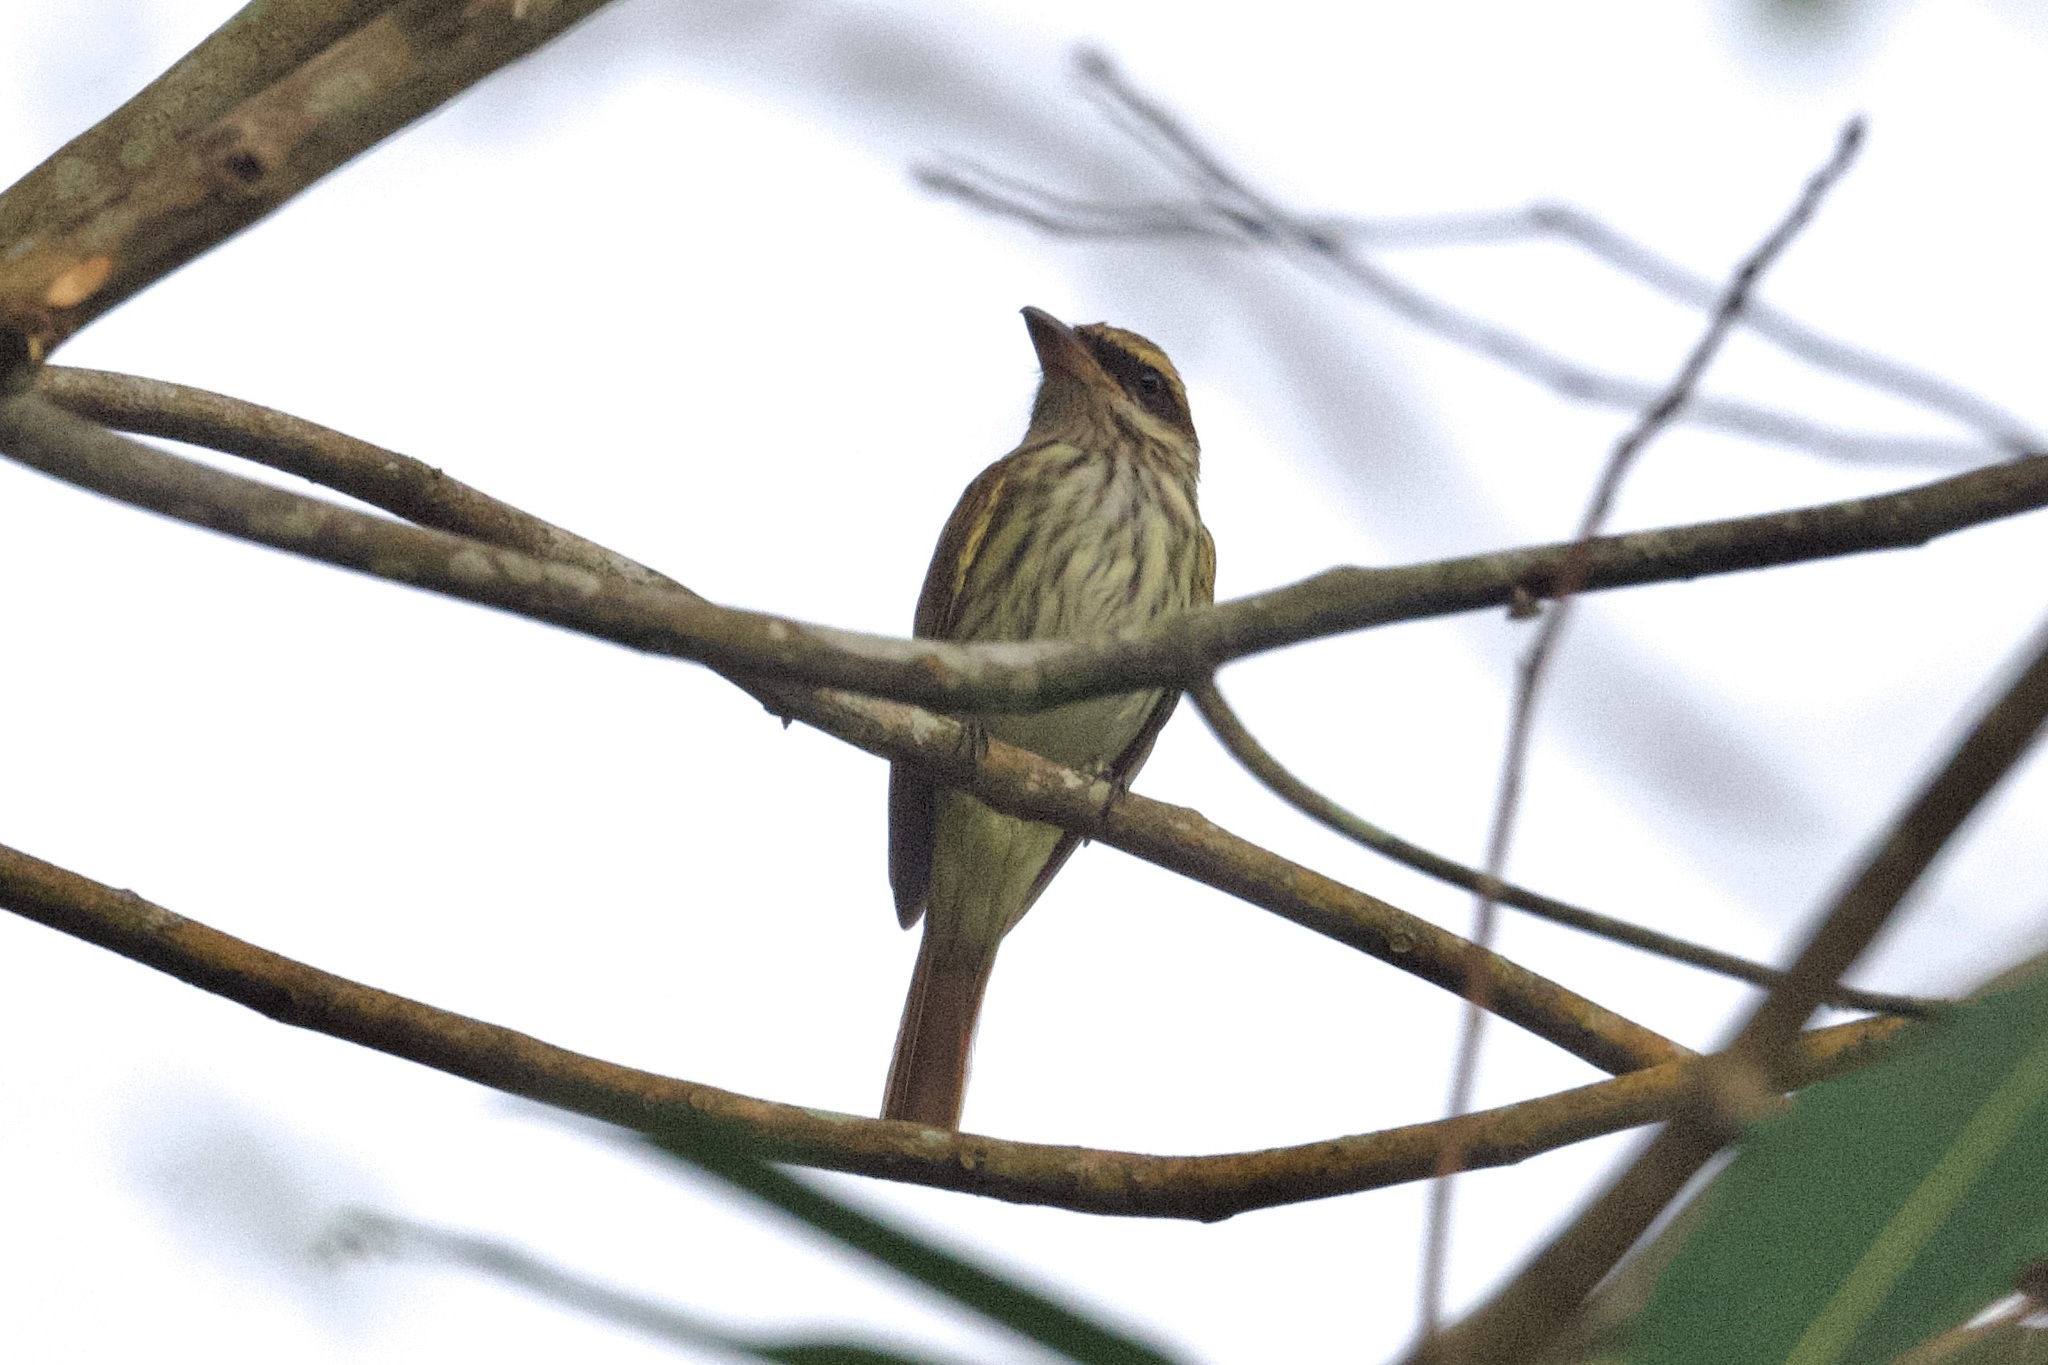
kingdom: Animalia
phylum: Chordata
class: Aves
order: Passeriformes
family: Tyrannidae
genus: Myiodynastes
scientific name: Myiodynastes maculatus
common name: Streaked flycatcher
